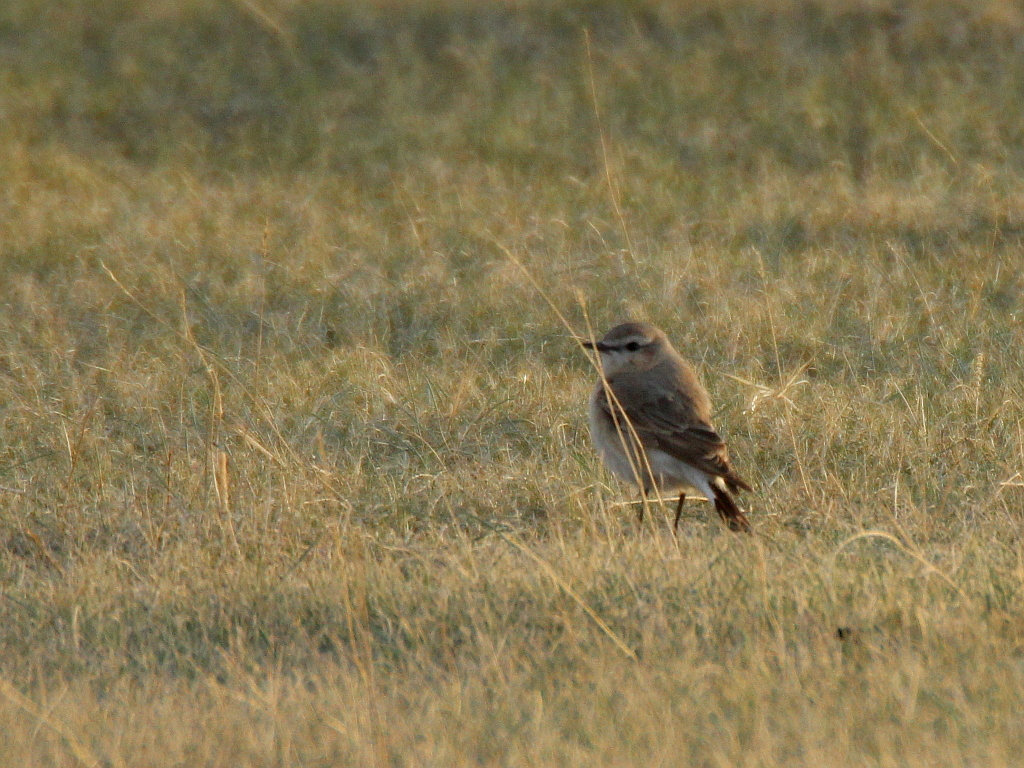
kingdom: Animalia
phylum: Chordata
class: Aves
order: Passeriformes
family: Muscicapidae
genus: Oenanthe
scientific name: Oenanthe isabellina
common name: Isabelline wheatear
